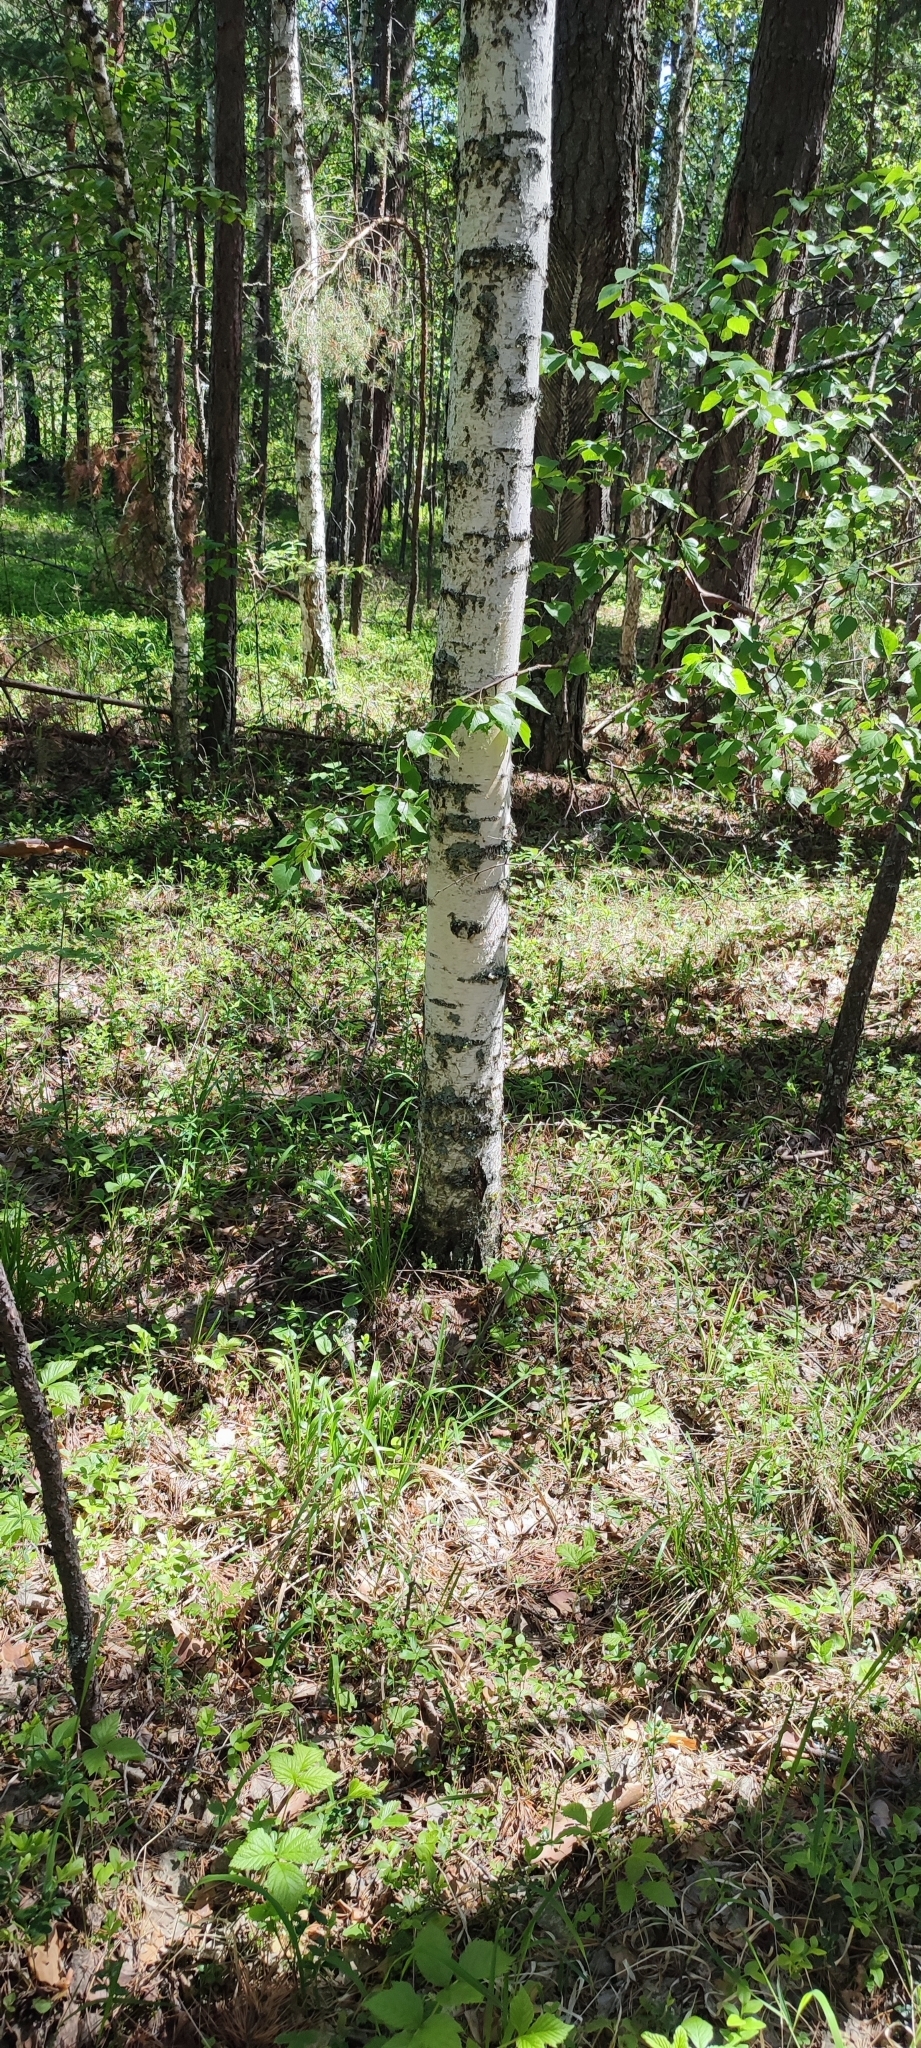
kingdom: Plantae
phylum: Tracheophyta
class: Magnoliopsida
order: Fagales
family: Betulaceae
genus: Betula
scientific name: Betula pendula
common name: Silver birch
